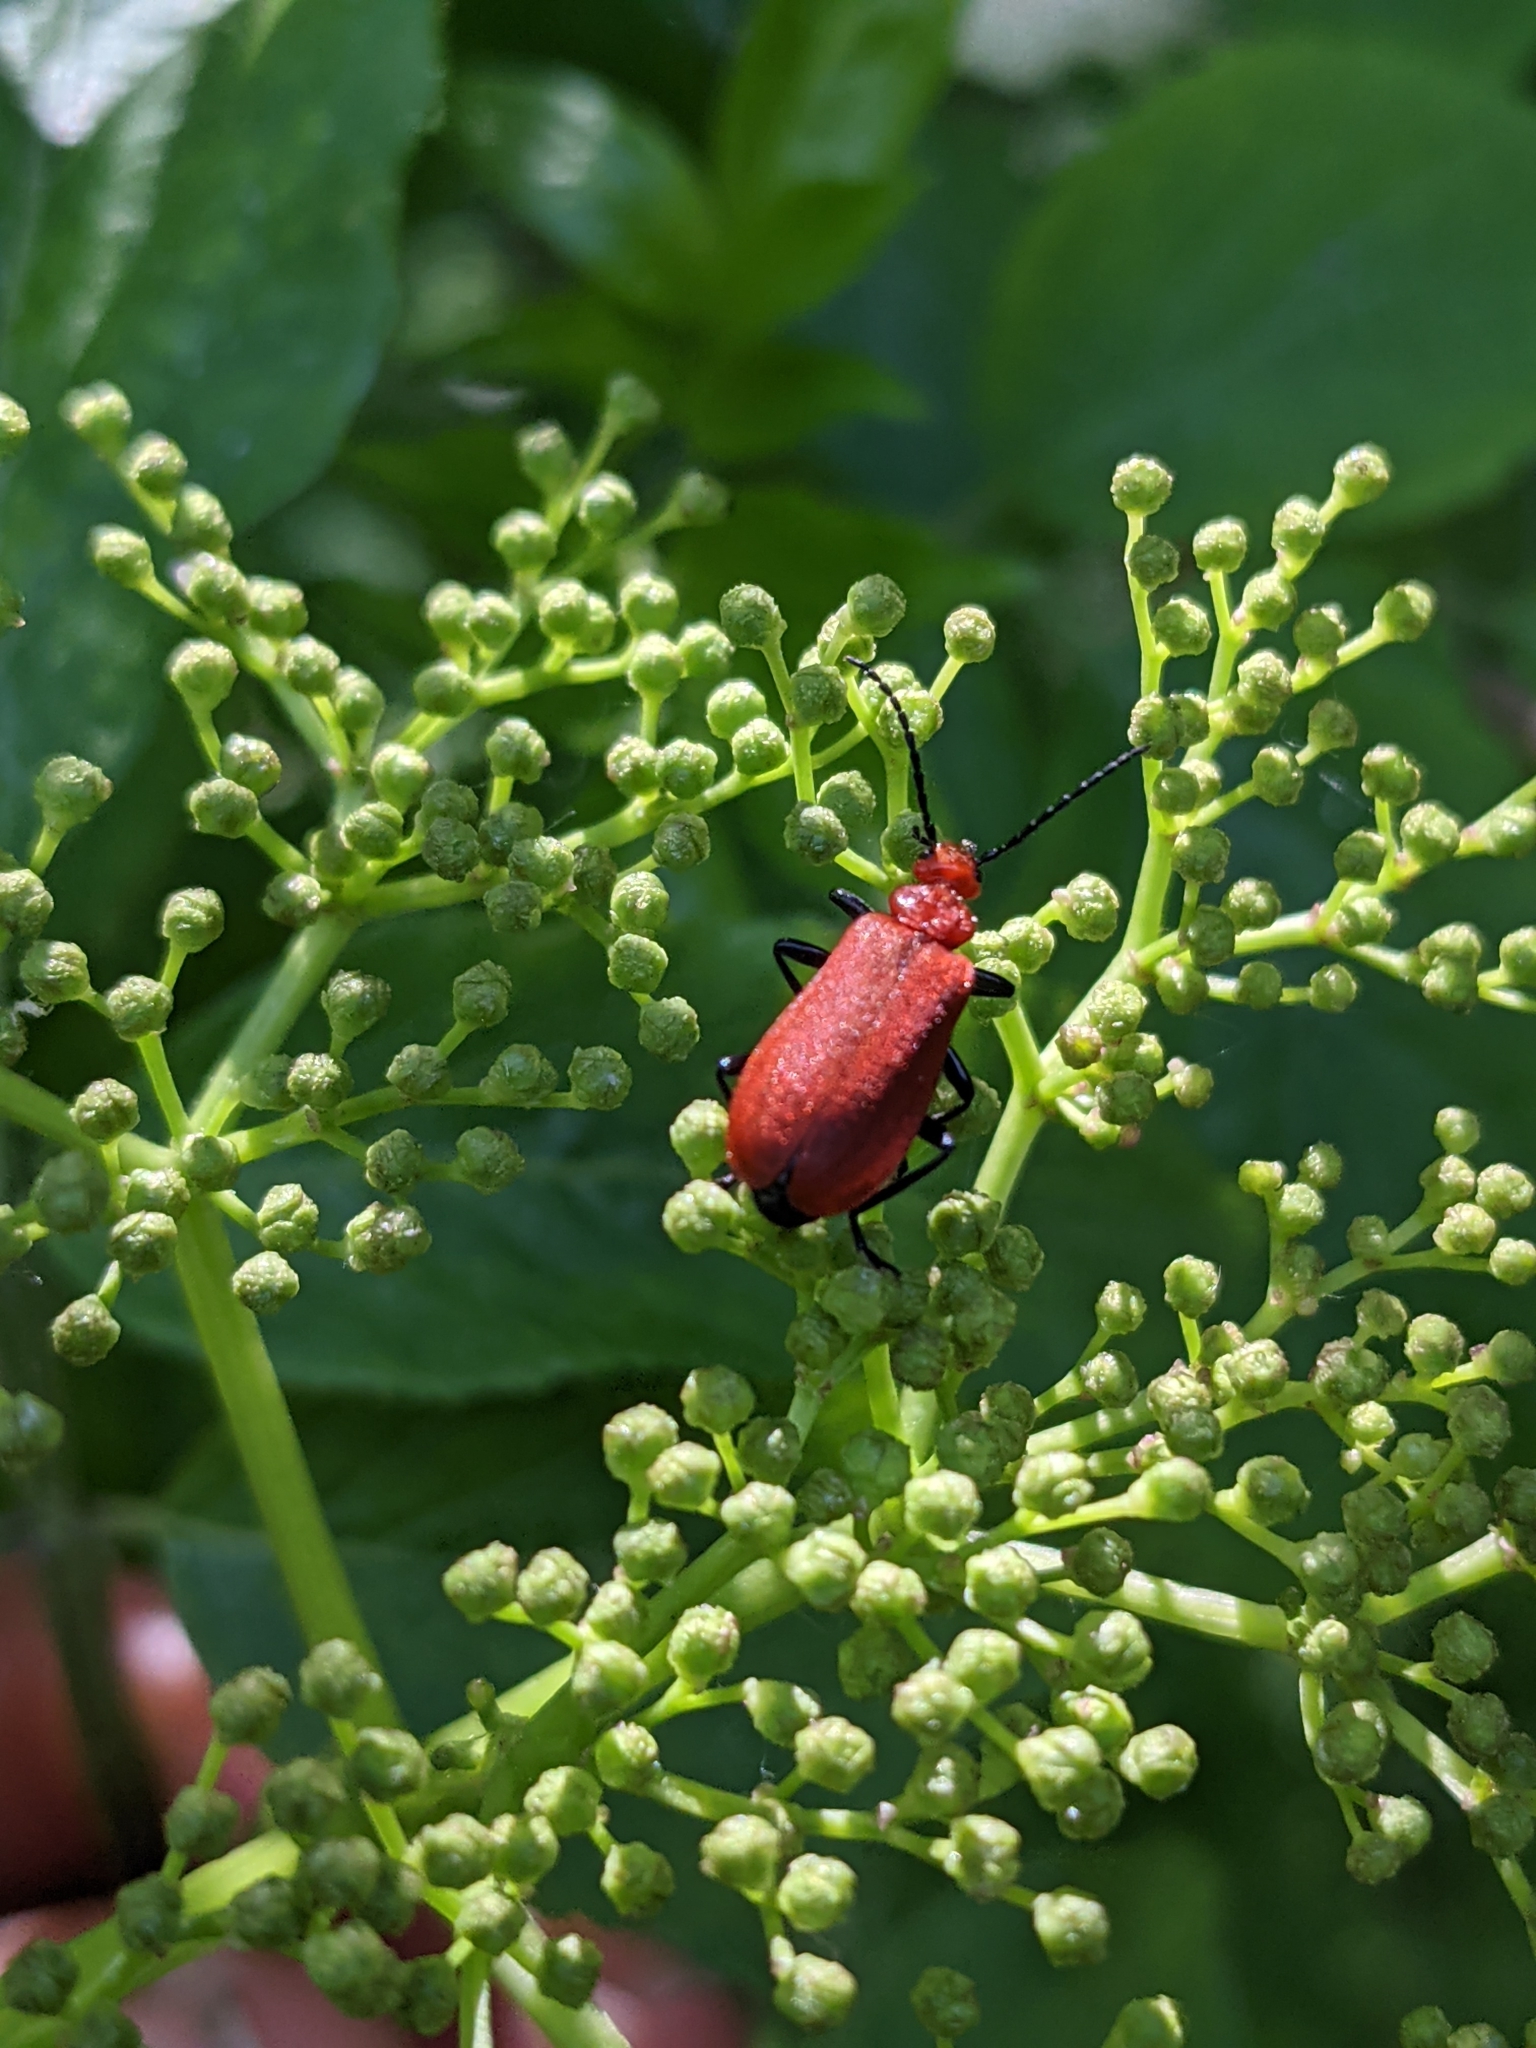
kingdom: Animalia
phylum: Arthropoda
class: Insecta
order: Coleoptera
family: Pyrochroidae
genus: Pyrochroa
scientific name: Pyrochroa serraticornis
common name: Red-headed cardinal beetle
